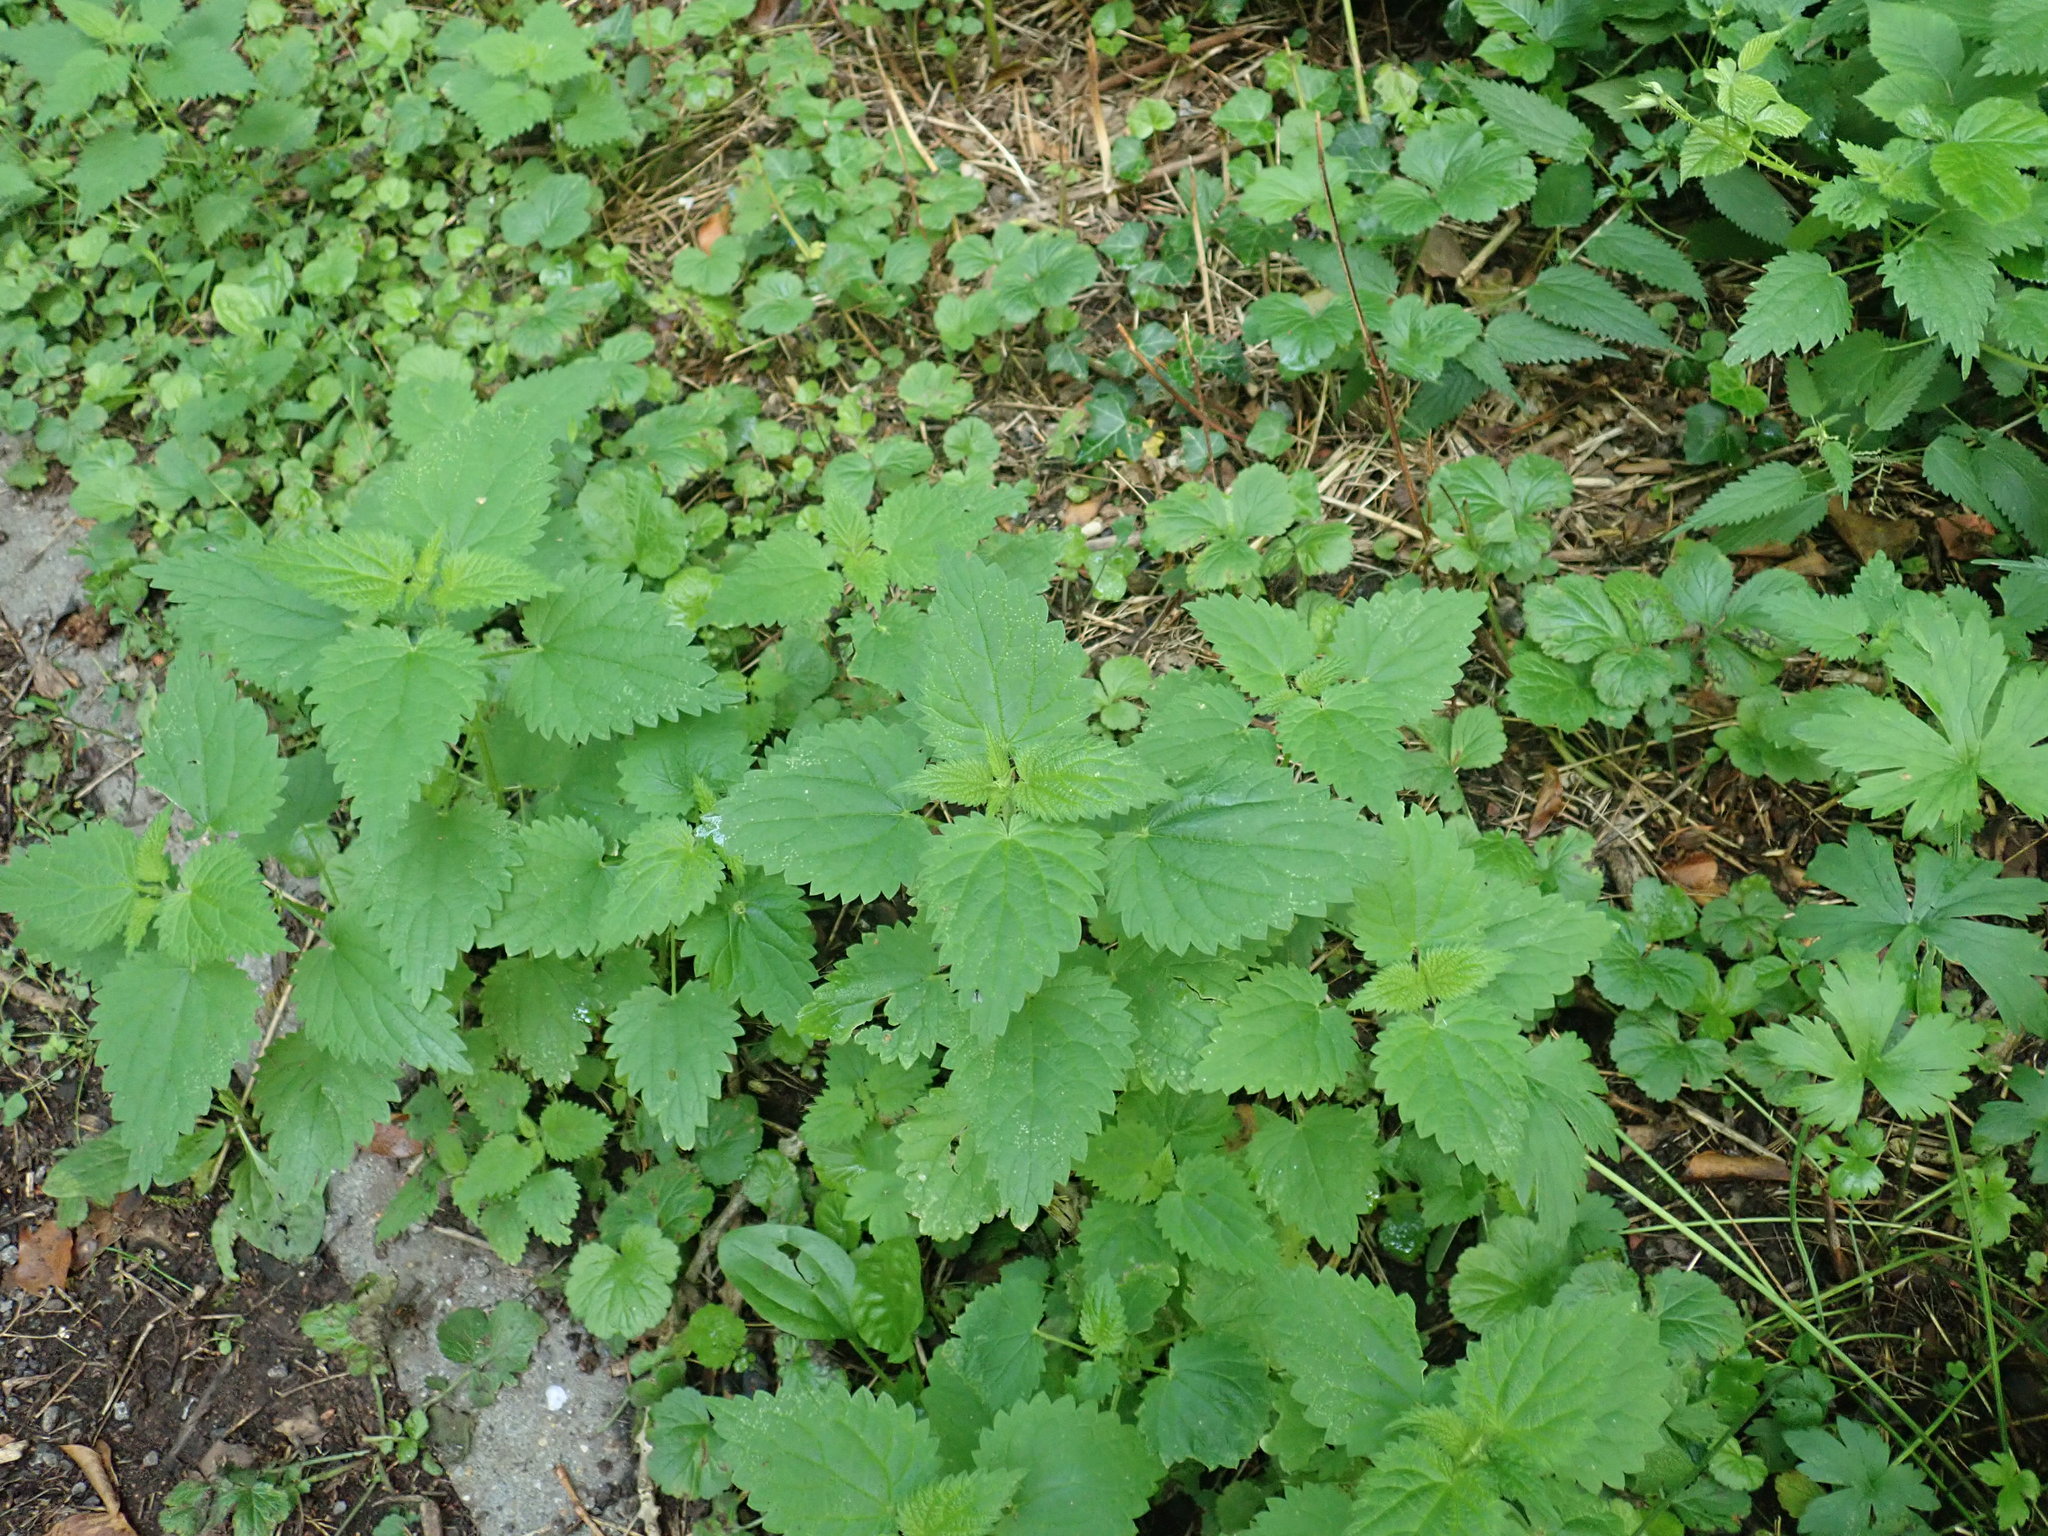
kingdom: Plantae
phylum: Tracheophyta
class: Magnoliopsida
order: Rosales
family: Urticaceae
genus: Urtica
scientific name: Urtica dioica
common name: Common nettle
